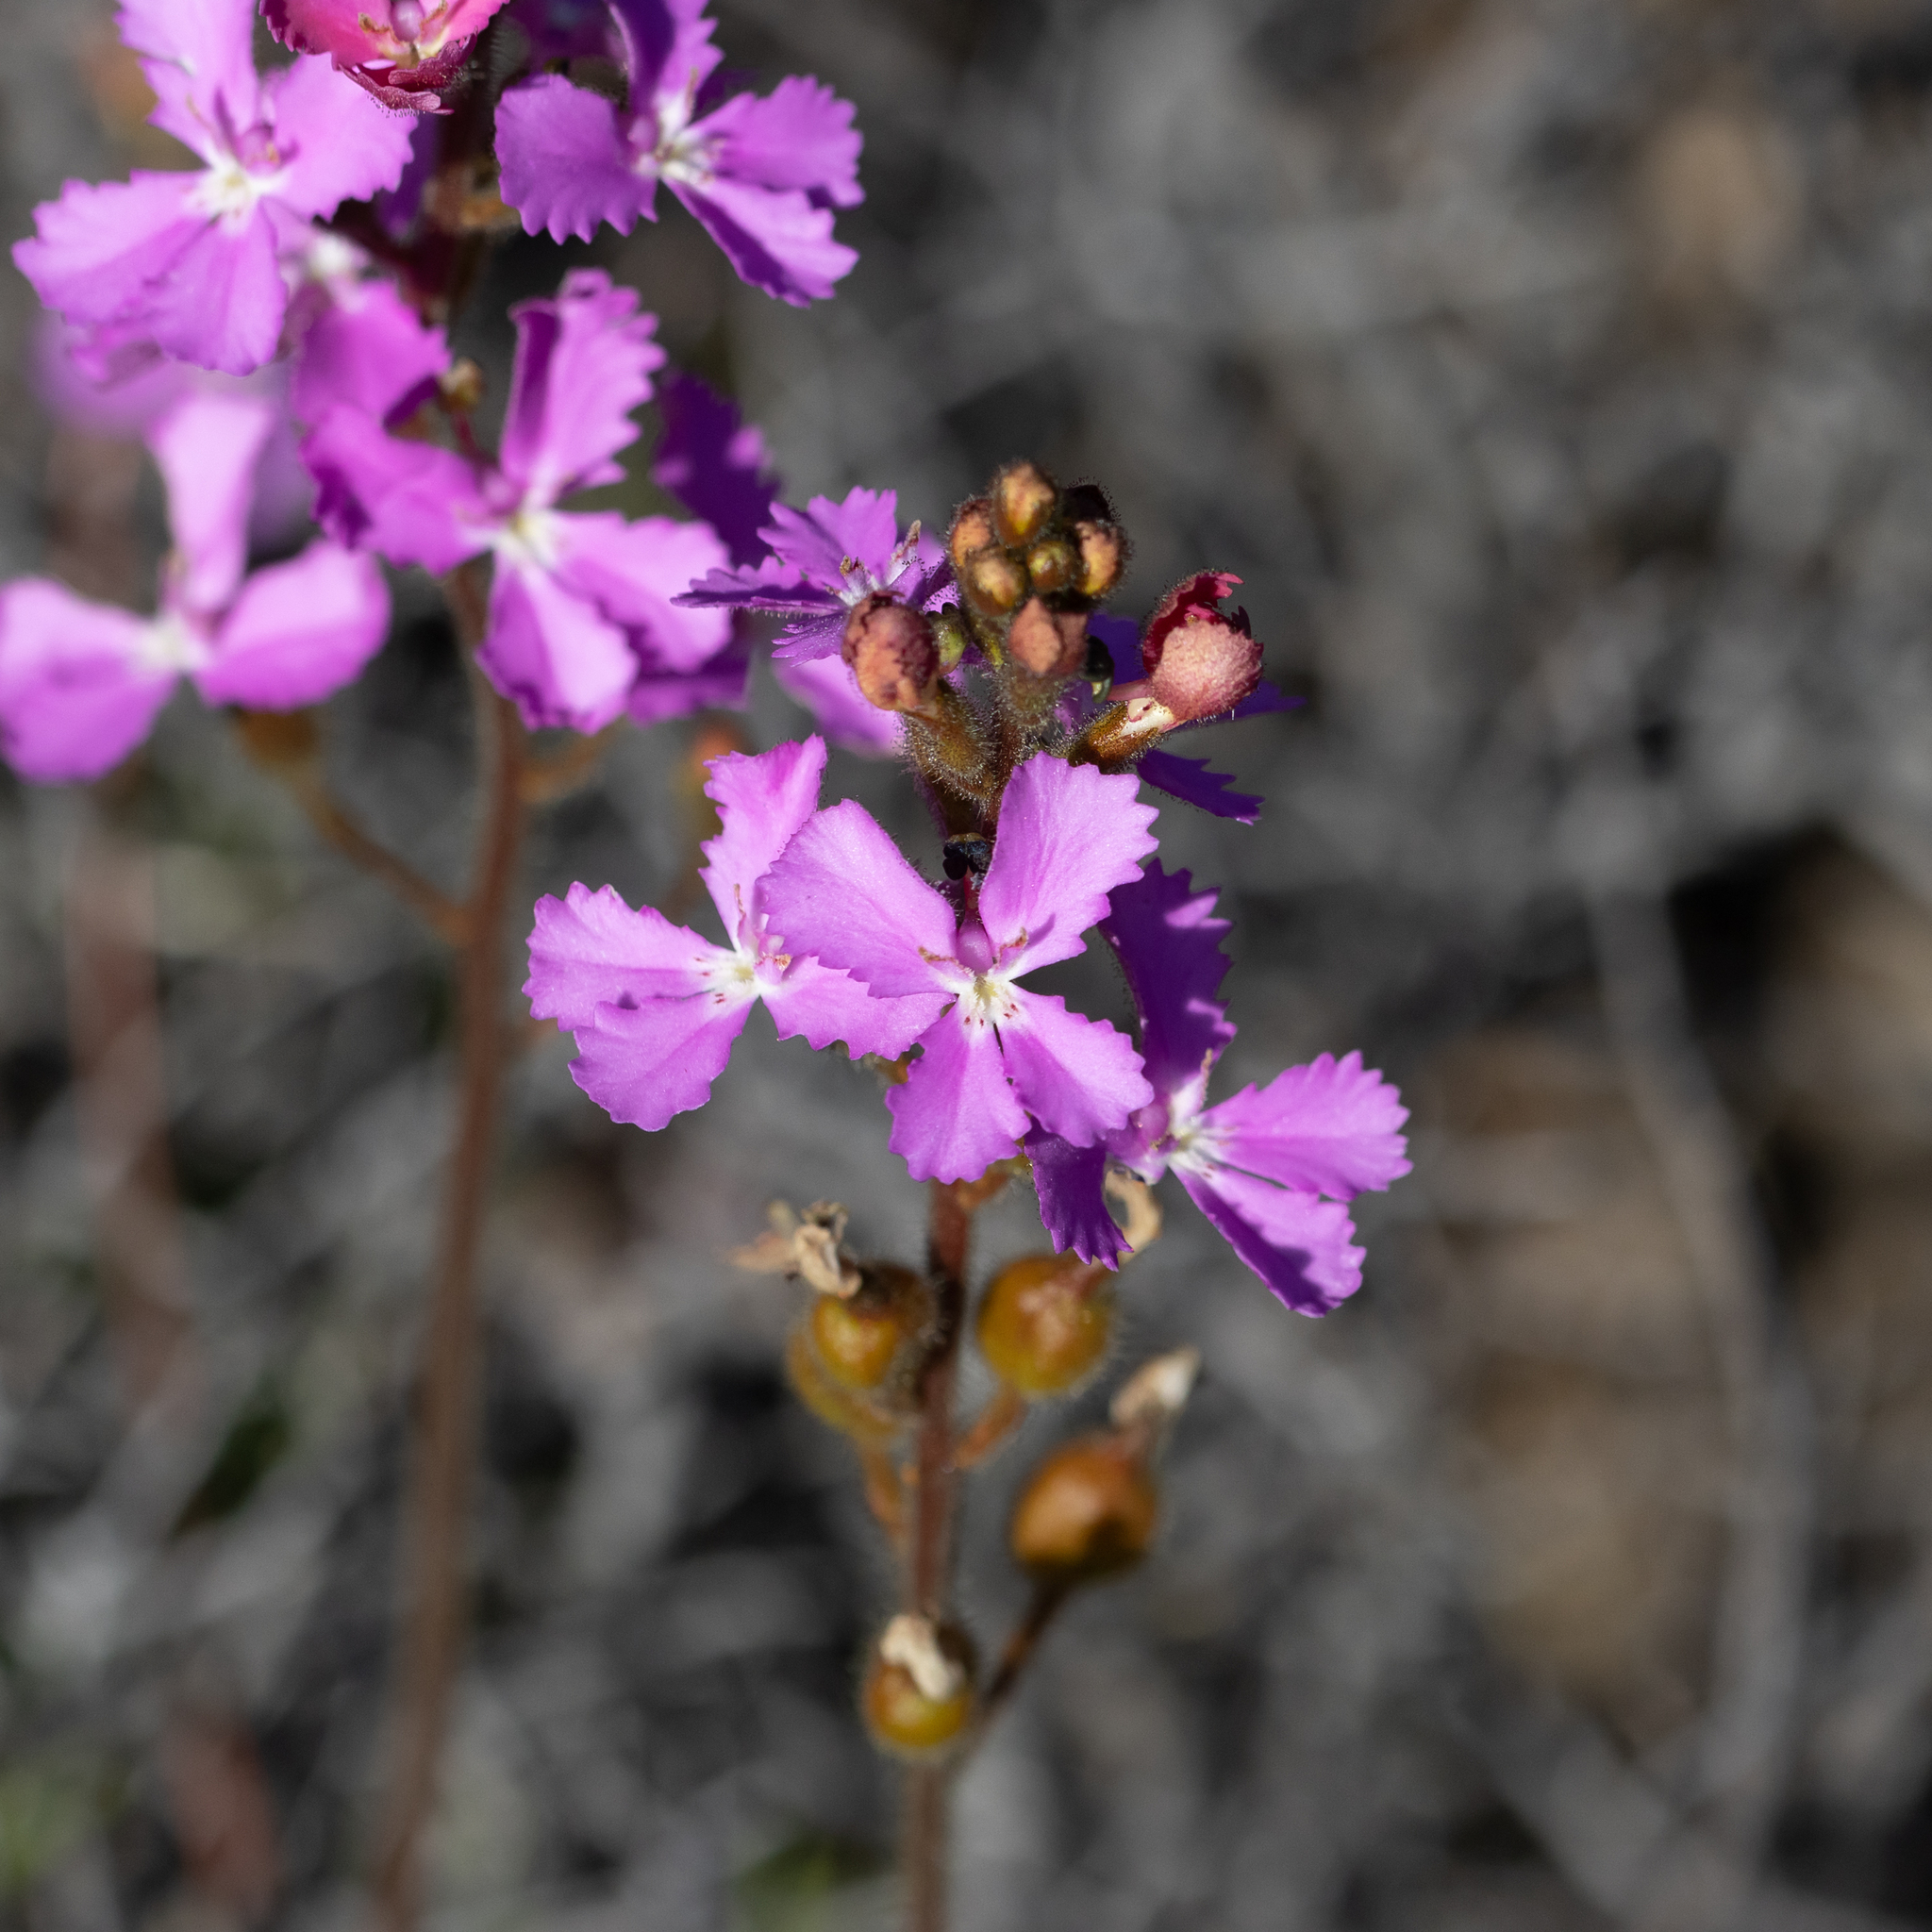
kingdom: Plantae
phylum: Tracheophyta
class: Magnoliopsida
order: Asterales
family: Stylidiaceae
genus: Stylidium
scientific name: Stylidium albomontis
